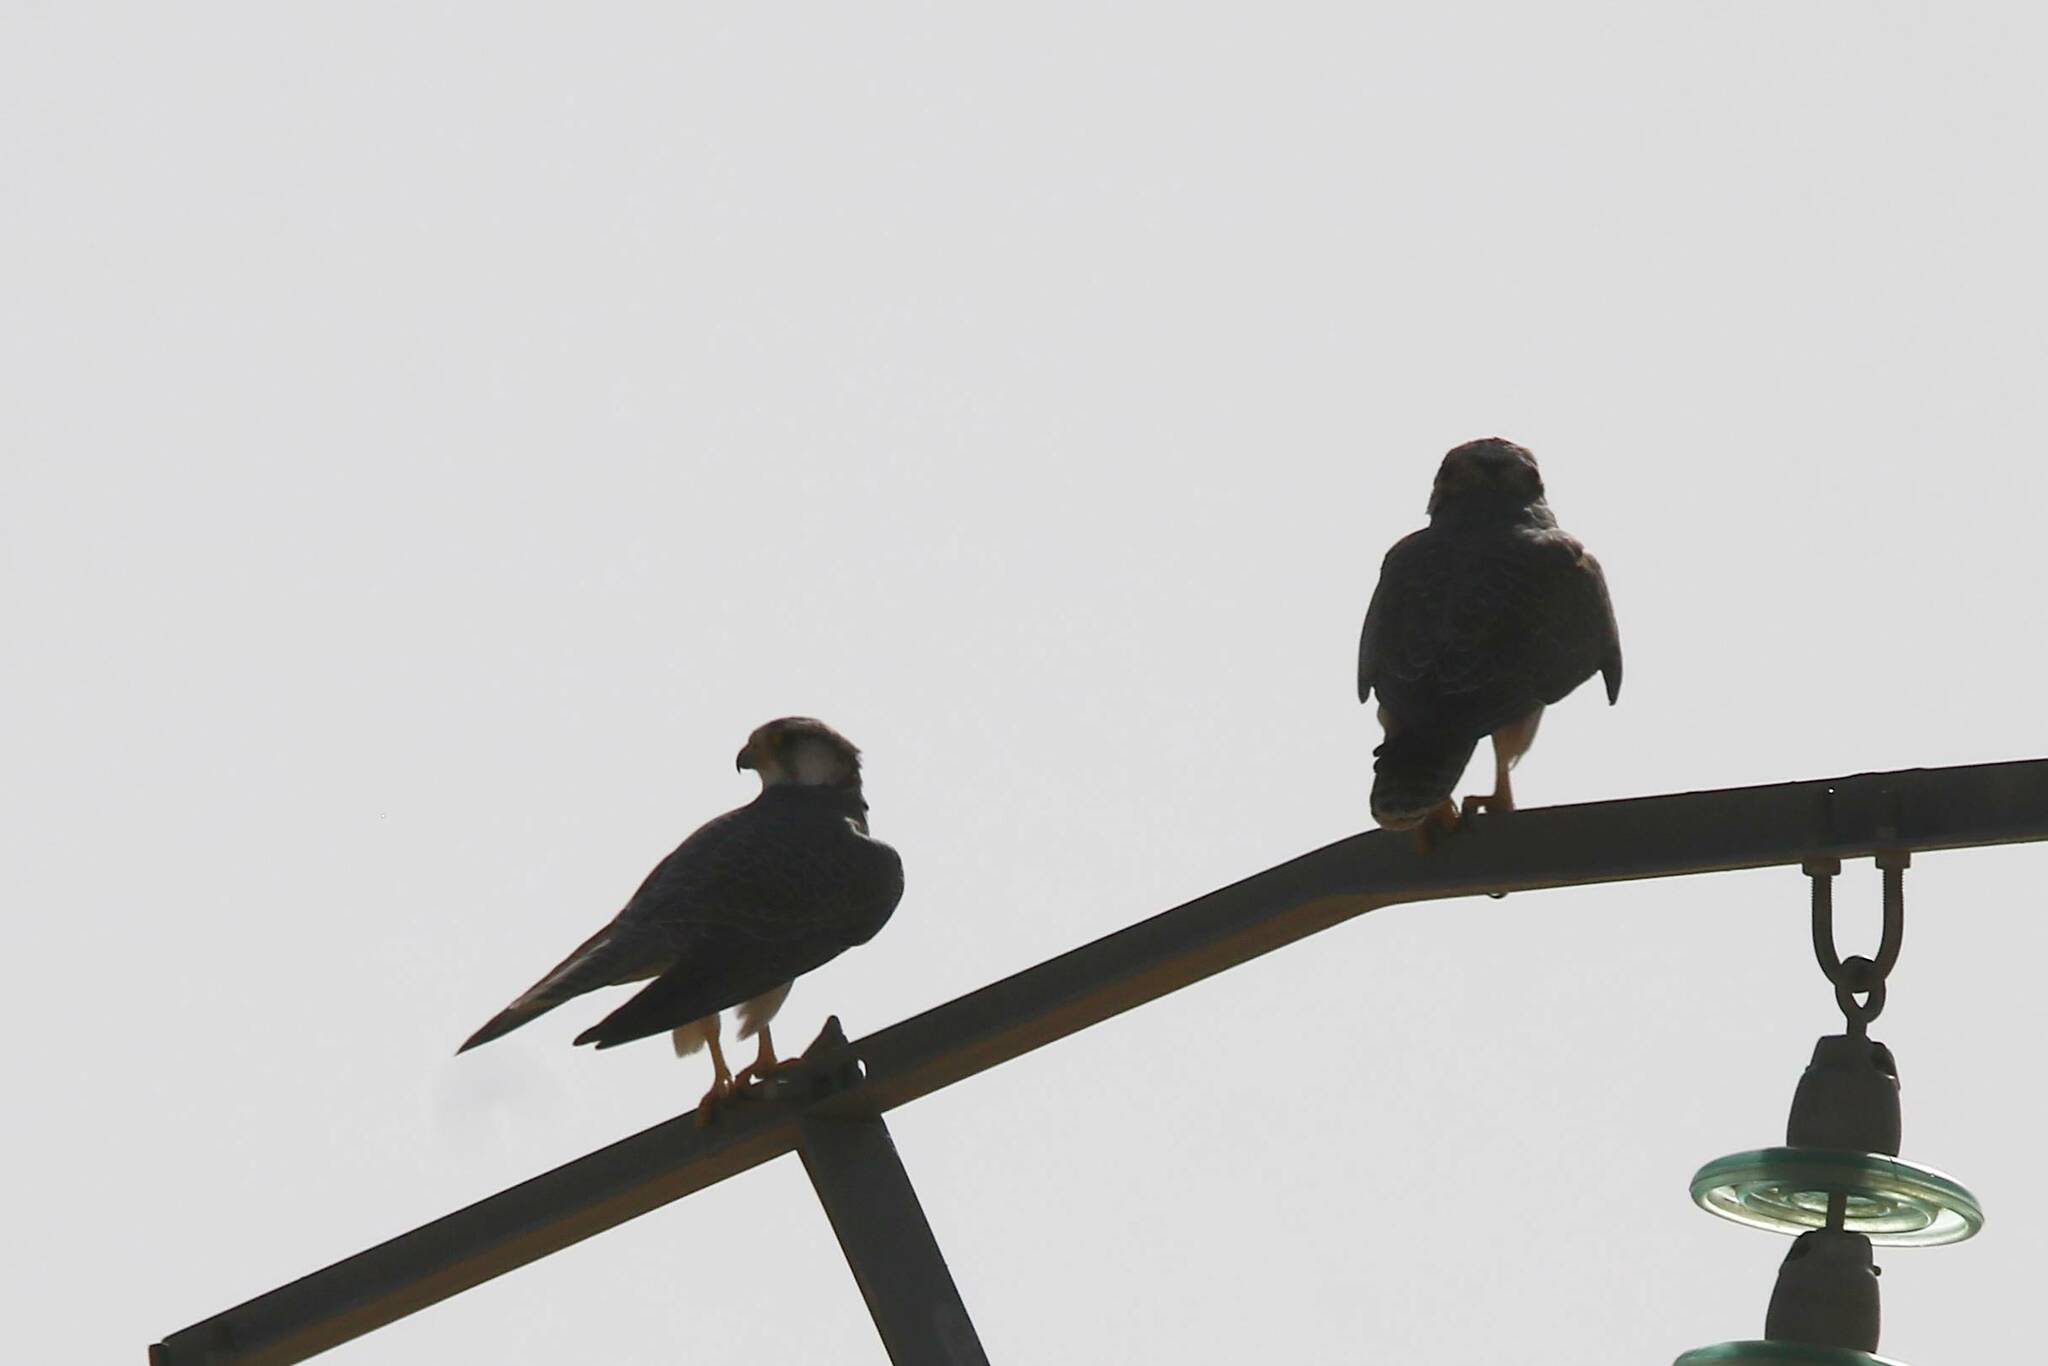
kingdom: Animalia
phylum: Chordata
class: Aves
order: Falconiformes
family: Falconidae
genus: Falco
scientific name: Falco biarmicus
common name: Lanner falcon
